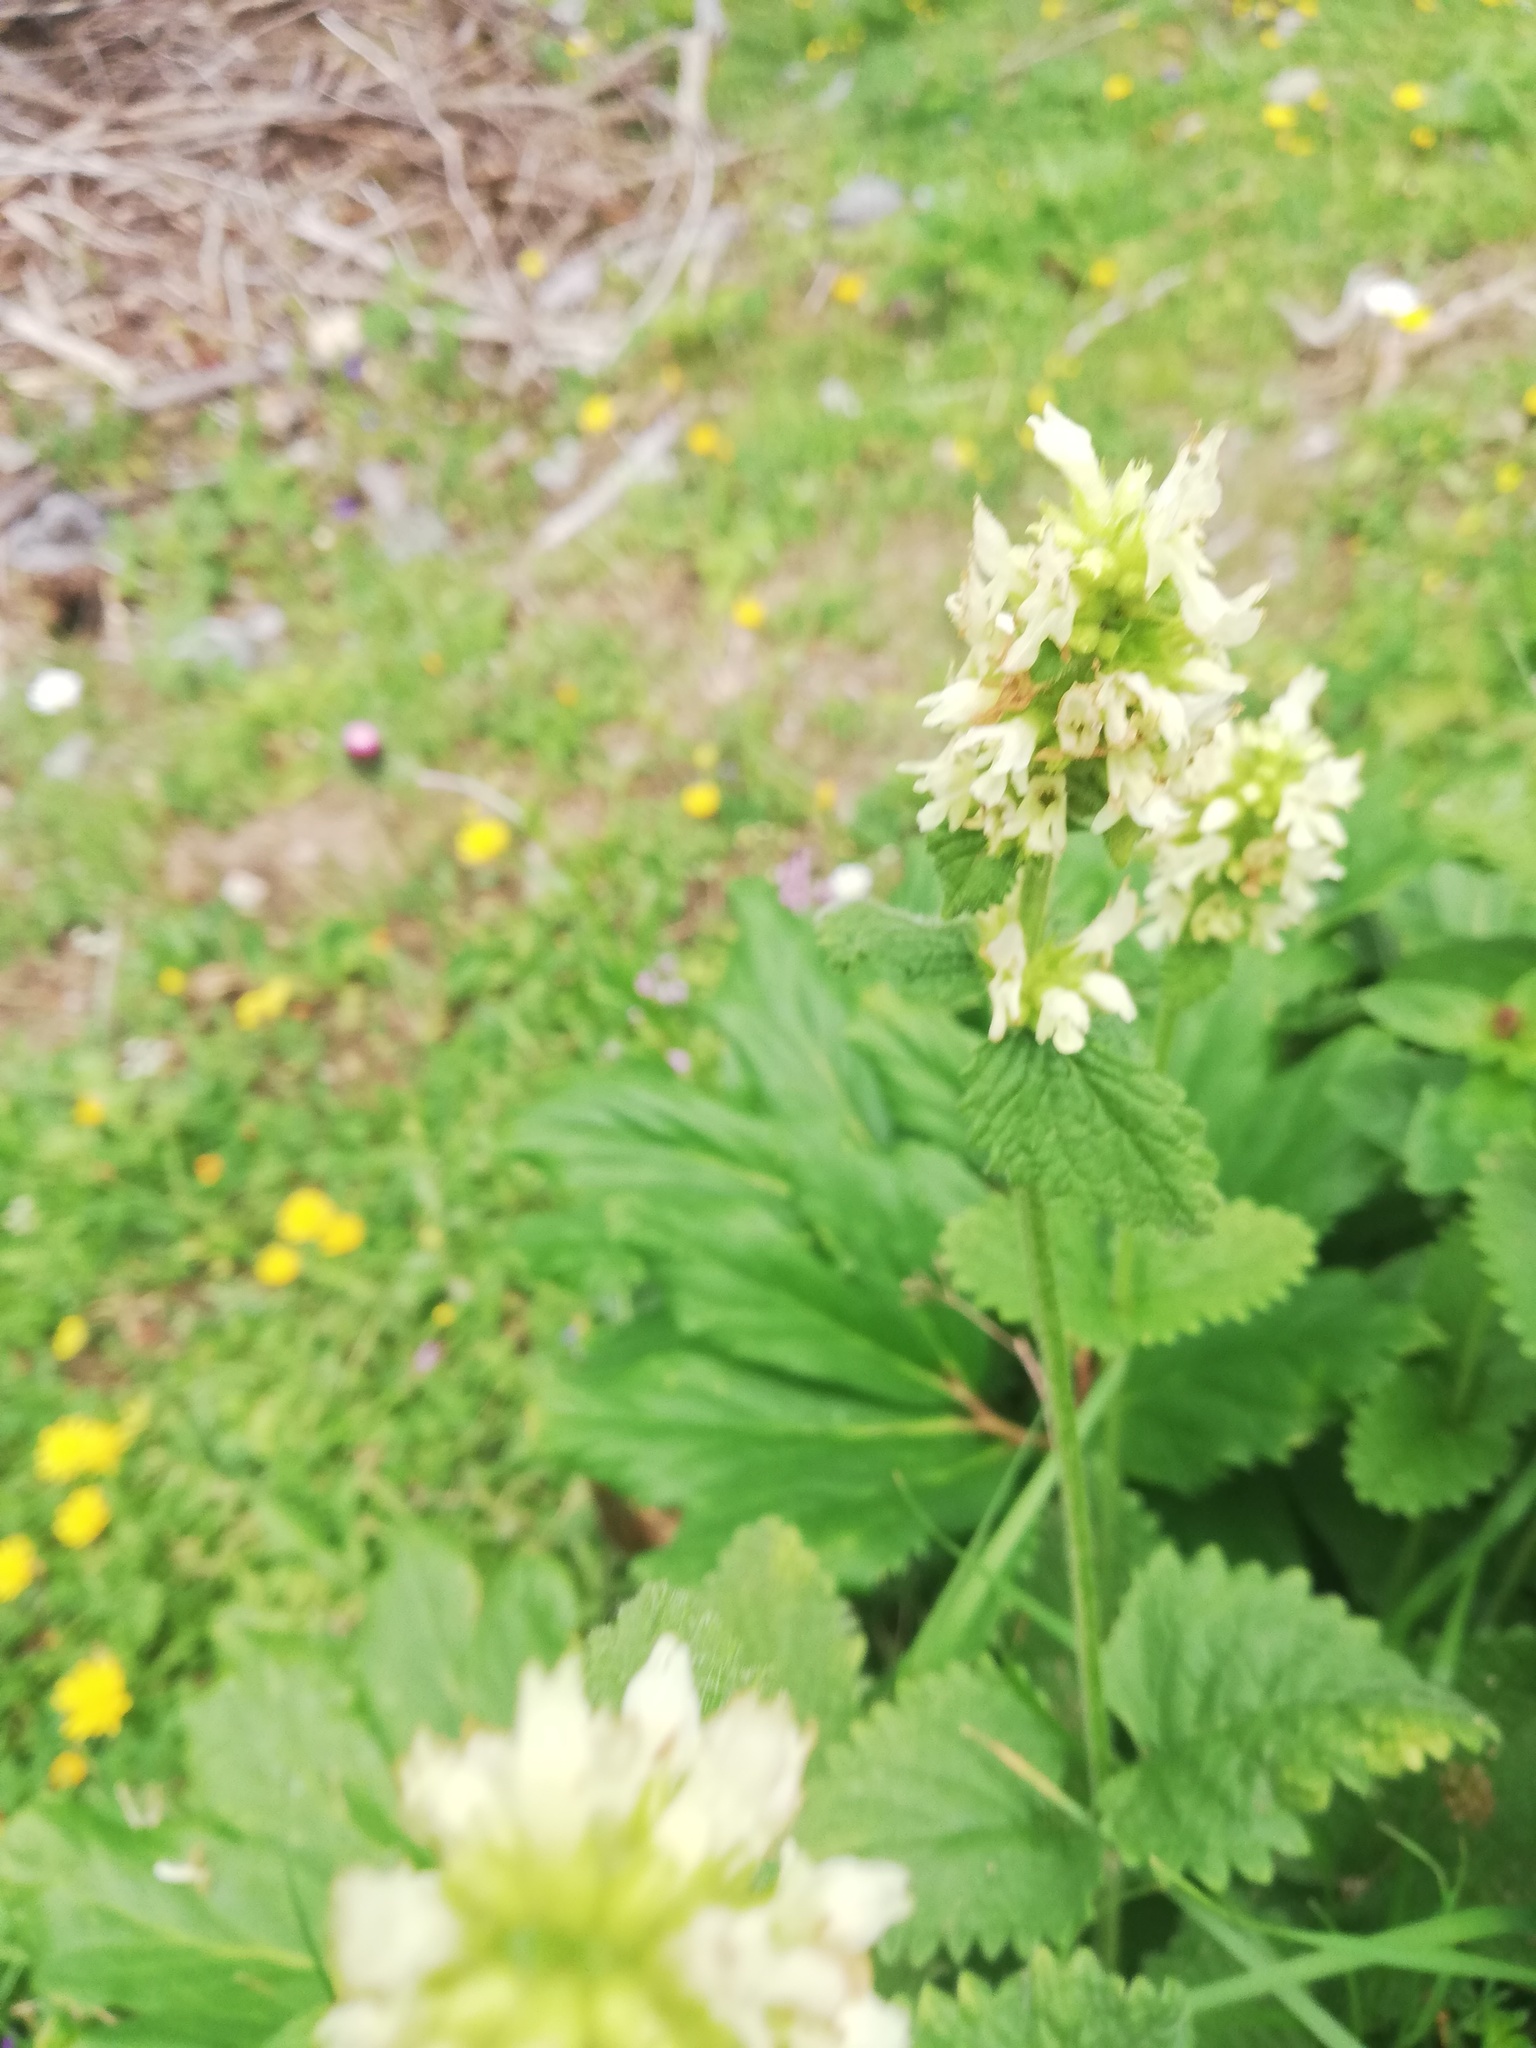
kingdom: Plantae
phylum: Tracheophyta
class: Magnoliopsida
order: Lamiales
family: Lamiaceae
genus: Betonica
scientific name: Betonica alopecuros
